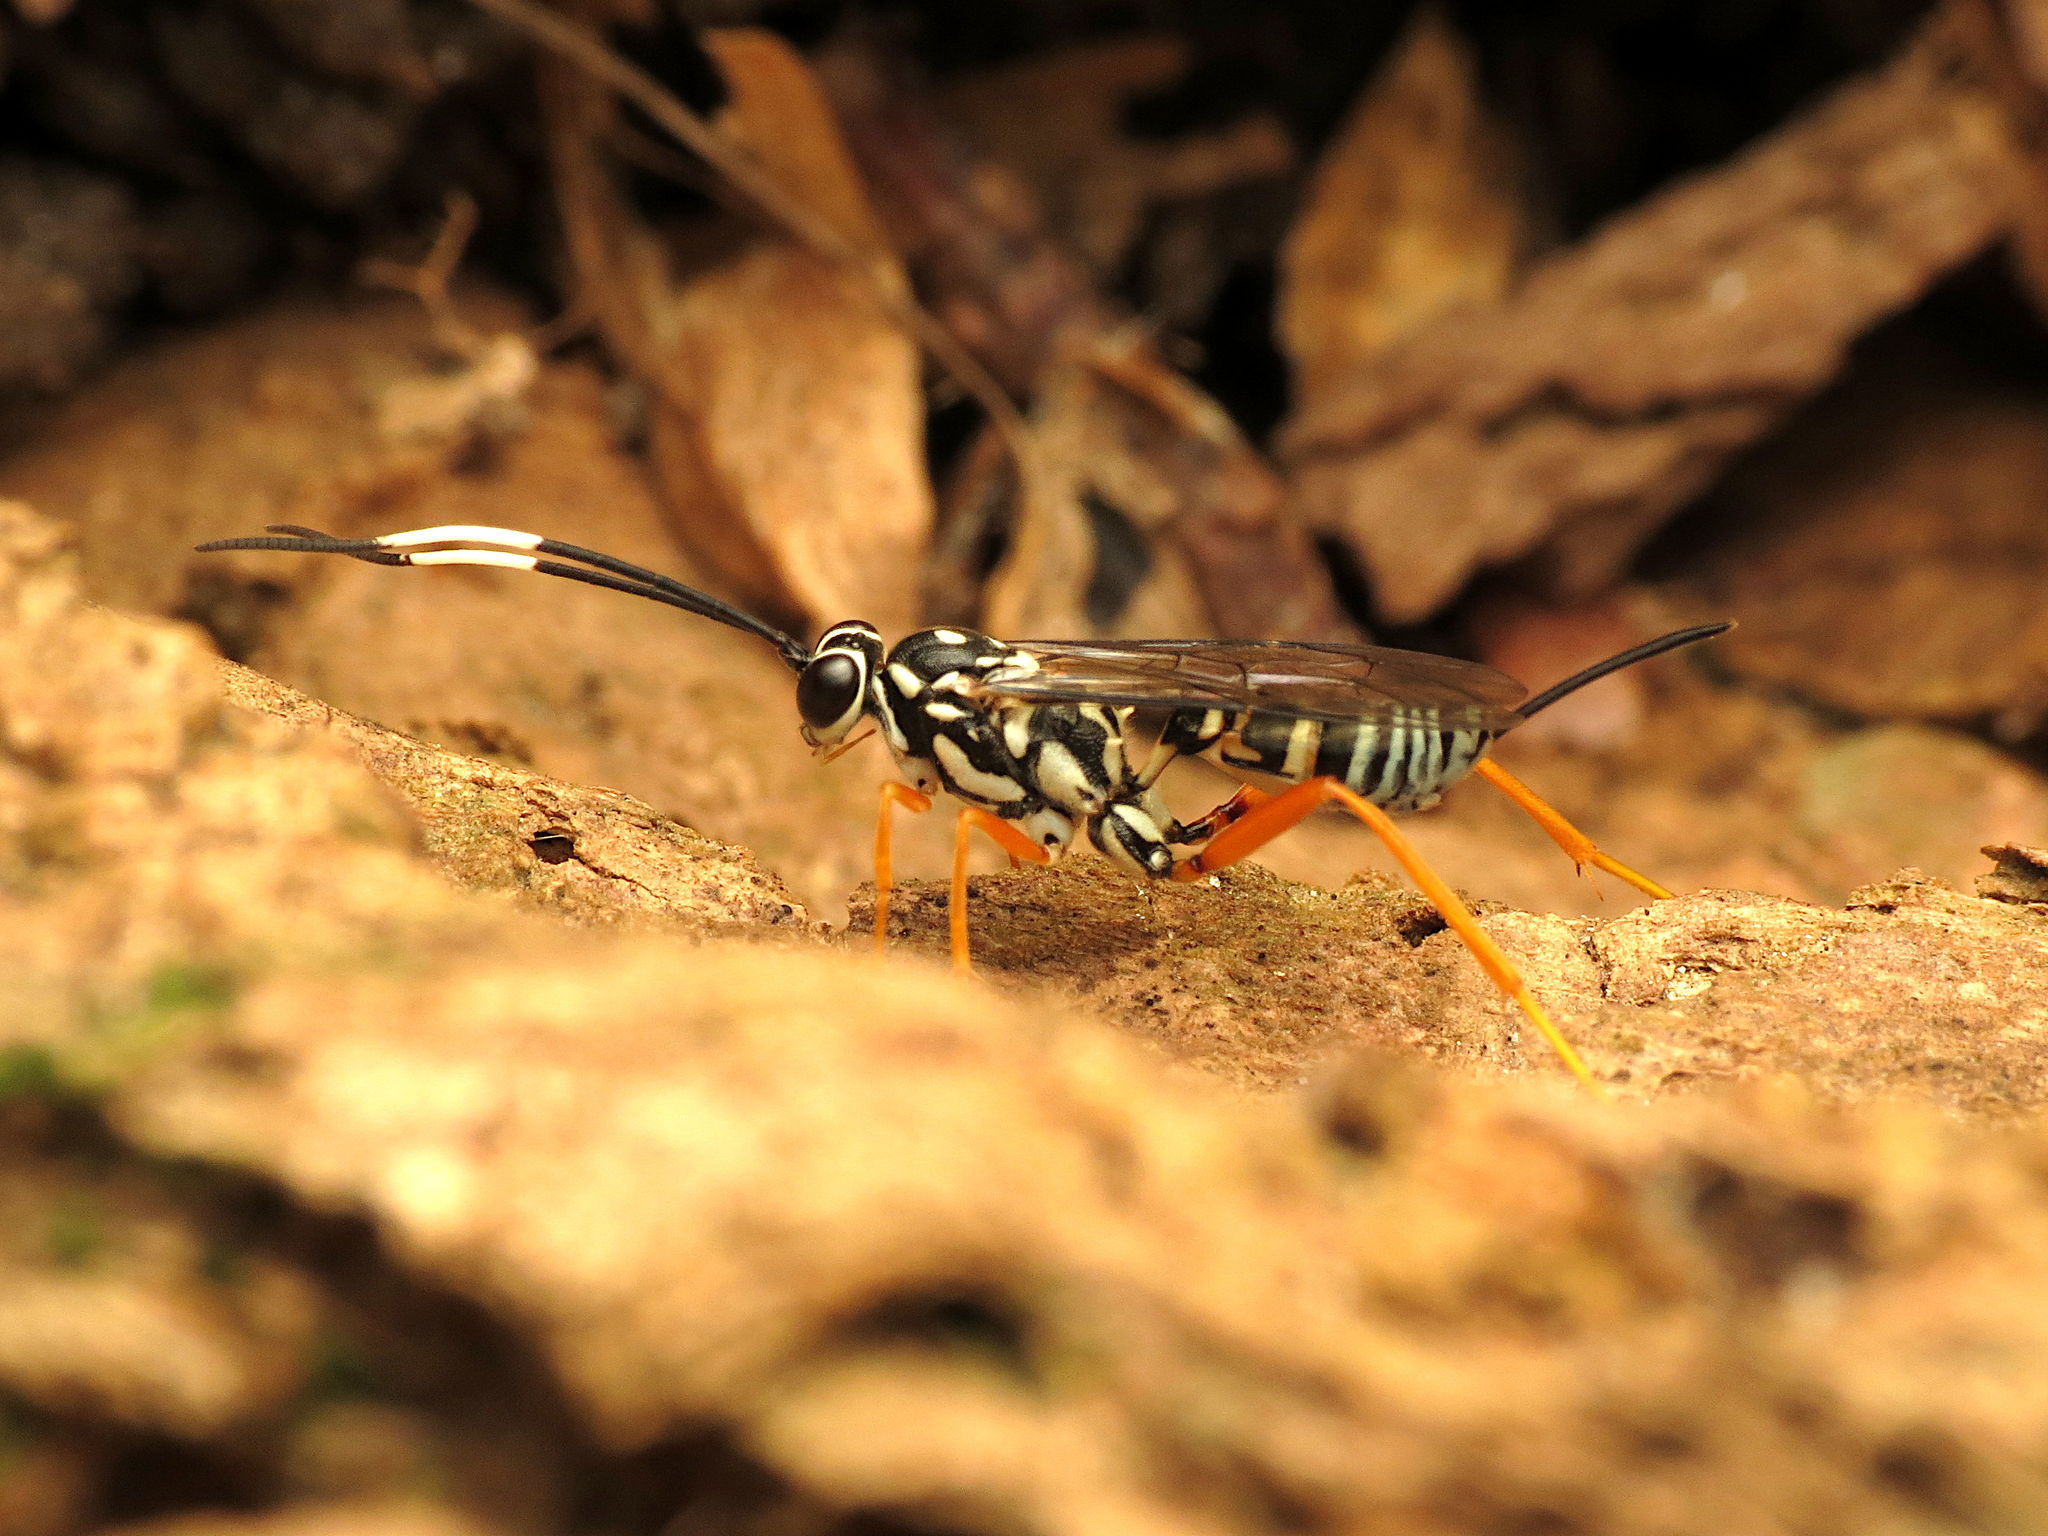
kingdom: Animalia
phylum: Arthropoda
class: Insecta
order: Hymenoptera
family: Ichneumonidae
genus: Cryptanura
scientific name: Cryptanura septentrionalis
